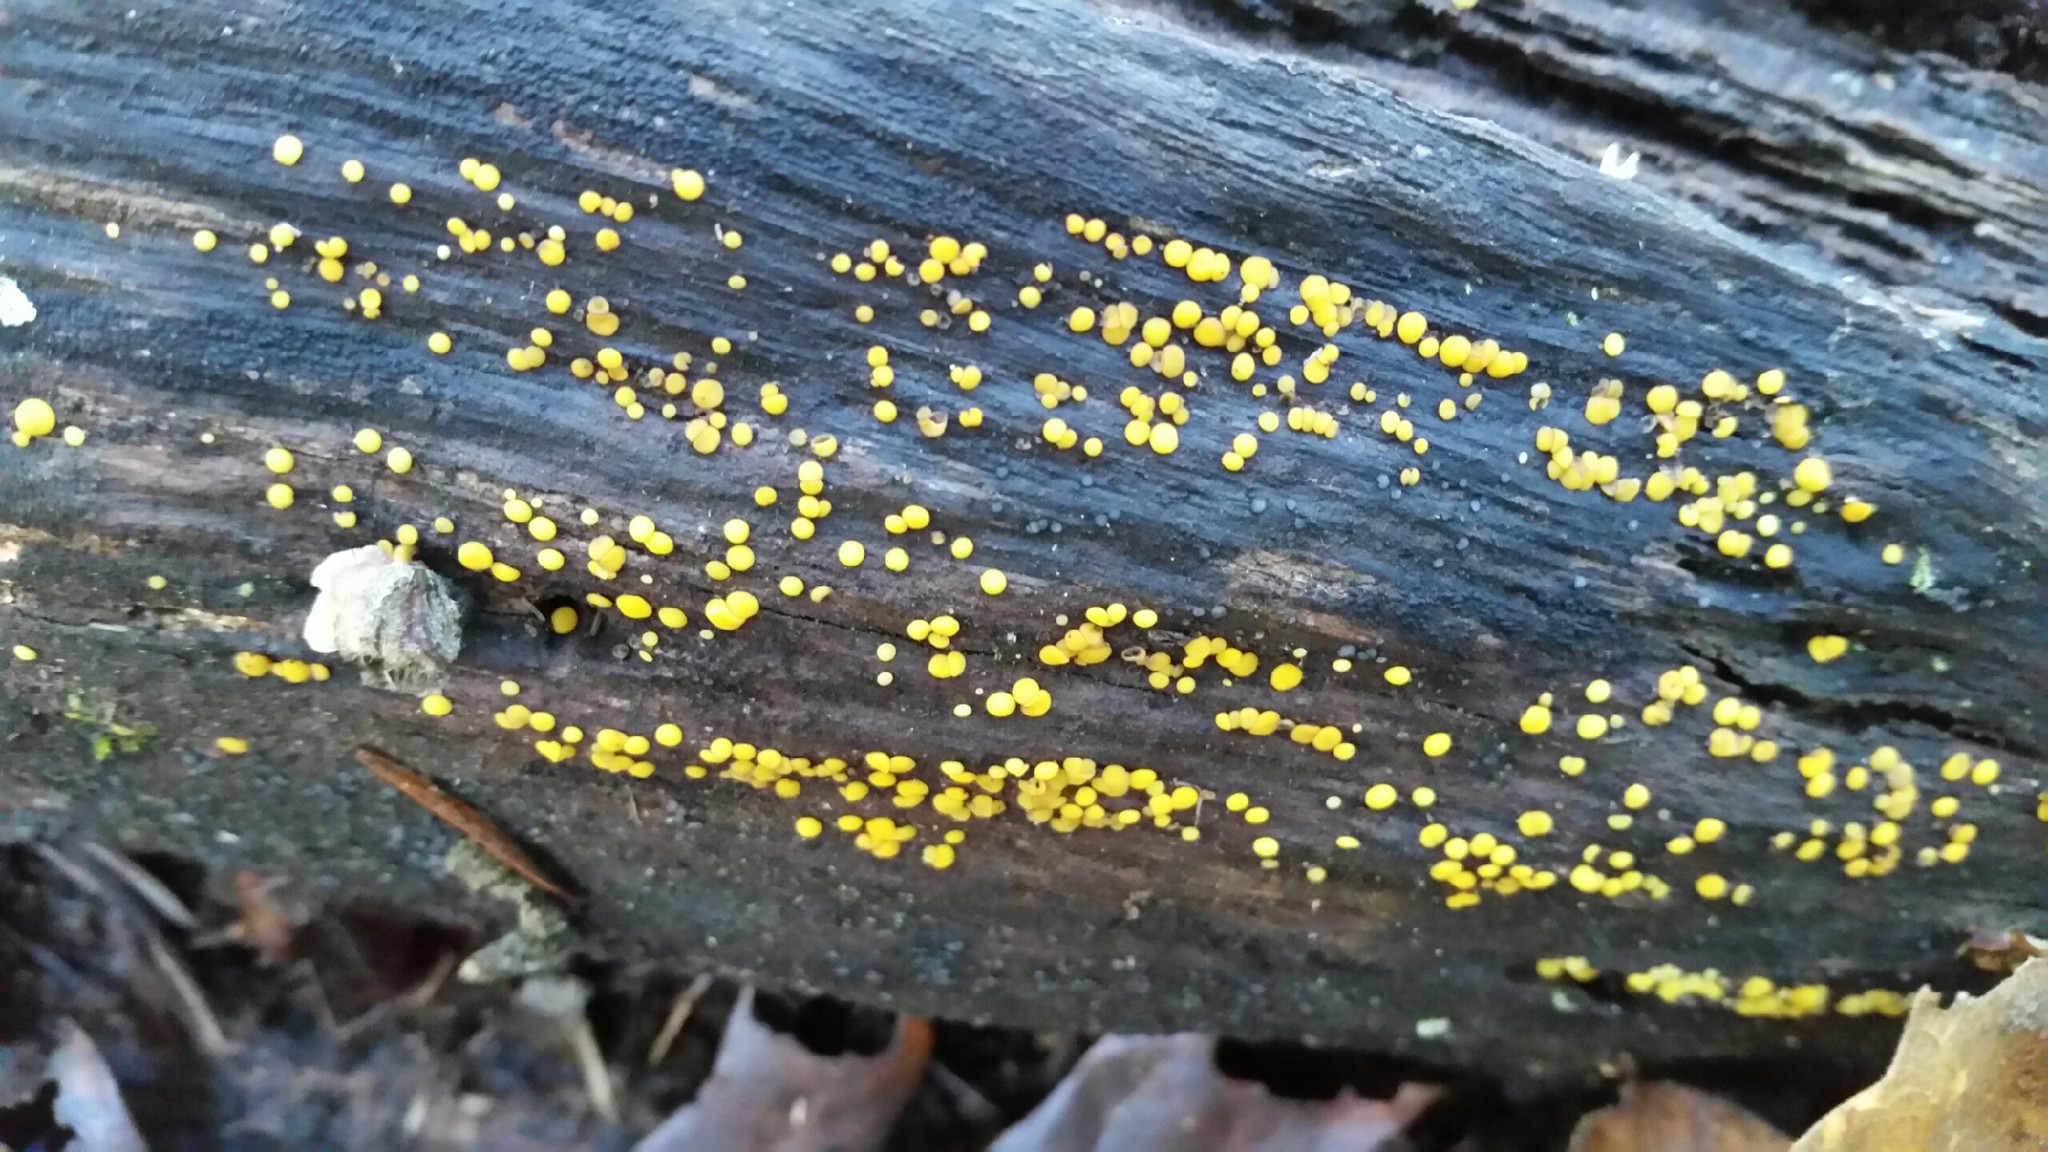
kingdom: Fungi
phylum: Ascomycota
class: Leotiomycetes
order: Helotiales
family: Pezizellaceae
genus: Calycina
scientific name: Calycina citrina
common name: Yellow fairy cups
